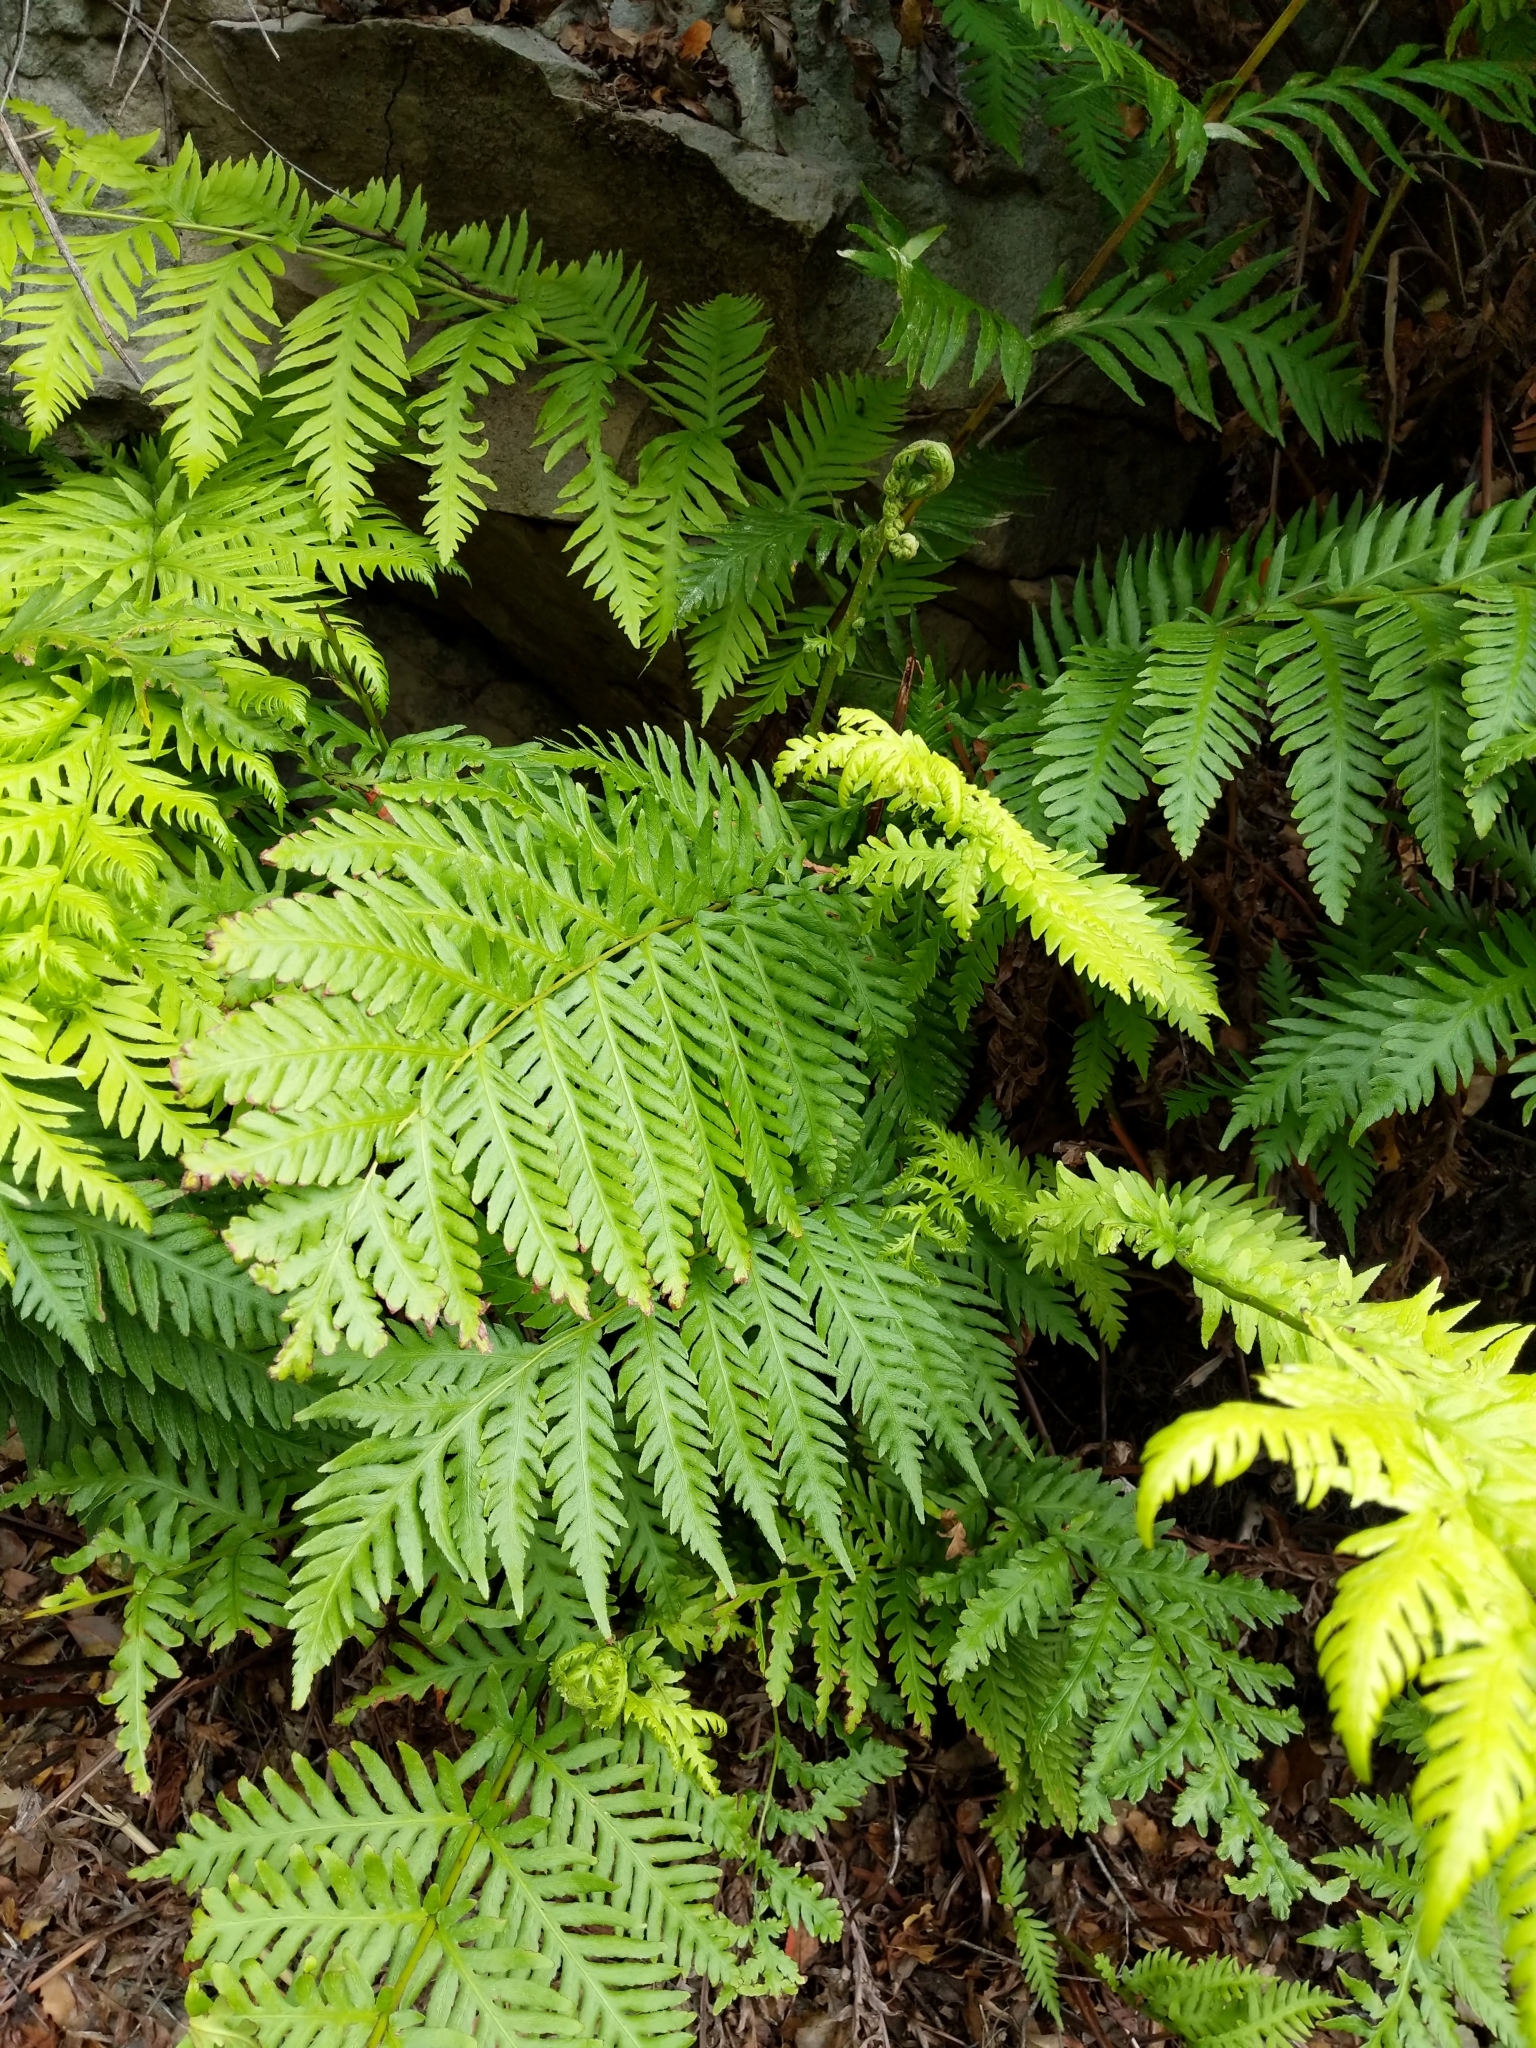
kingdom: Plantae
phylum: Tracheophyta
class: Polypodiopsida
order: Polypodiales
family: Blechnaceae
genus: Woodwardia
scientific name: Woodwardia fimbriata
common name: Giant chain fern
